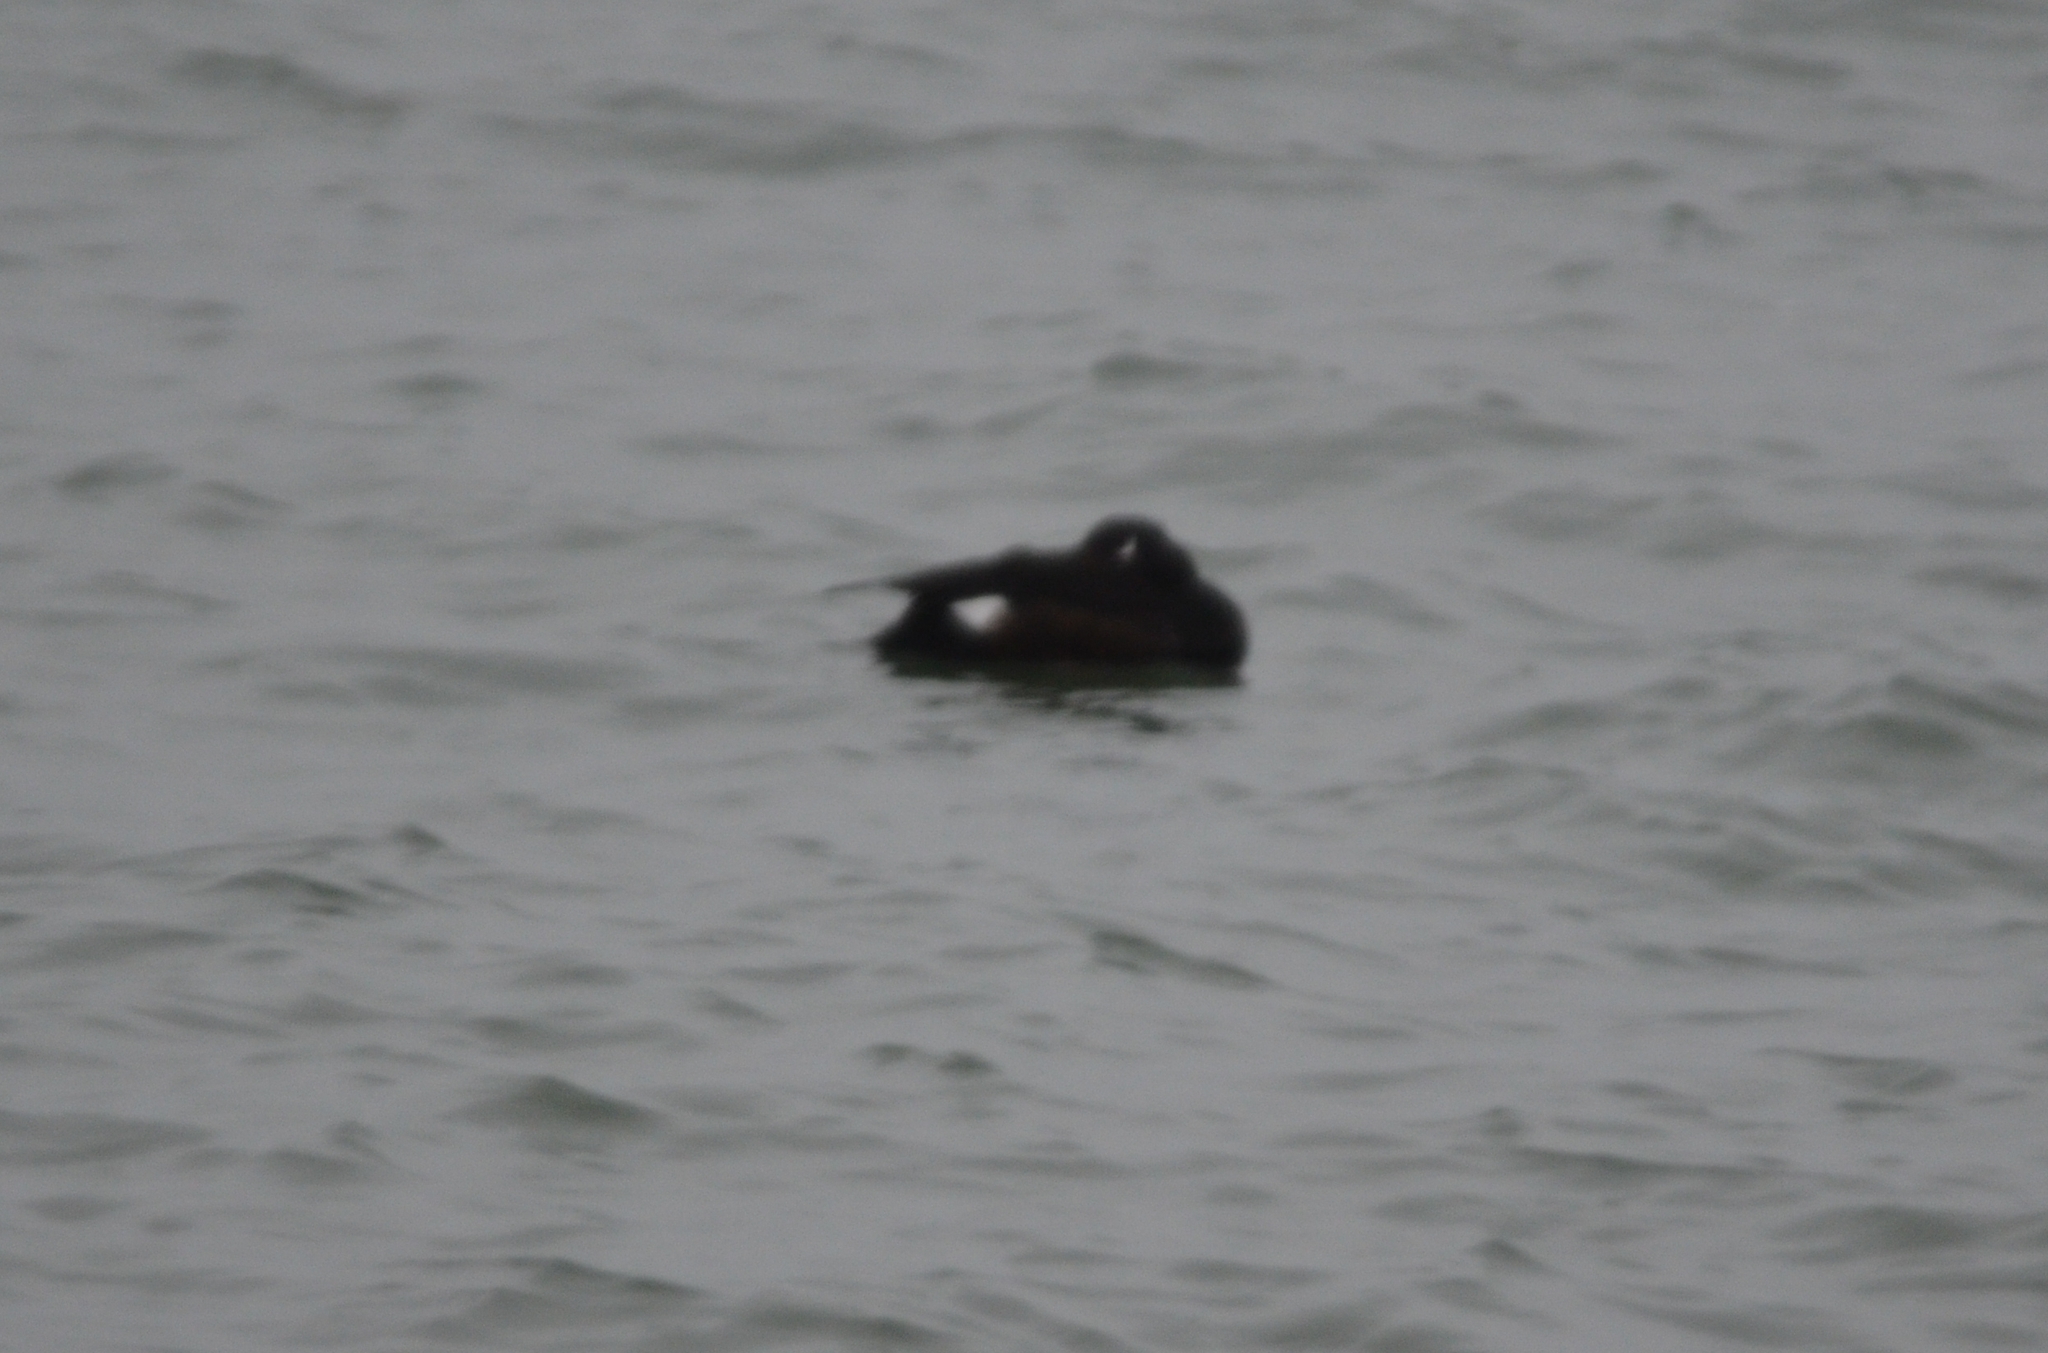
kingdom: Animalia
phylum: Chordata
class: Aves
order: Anseriformes
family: Anatidae
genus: Melanitta
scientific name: Melanitta deglandi
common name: White-winged scoter
